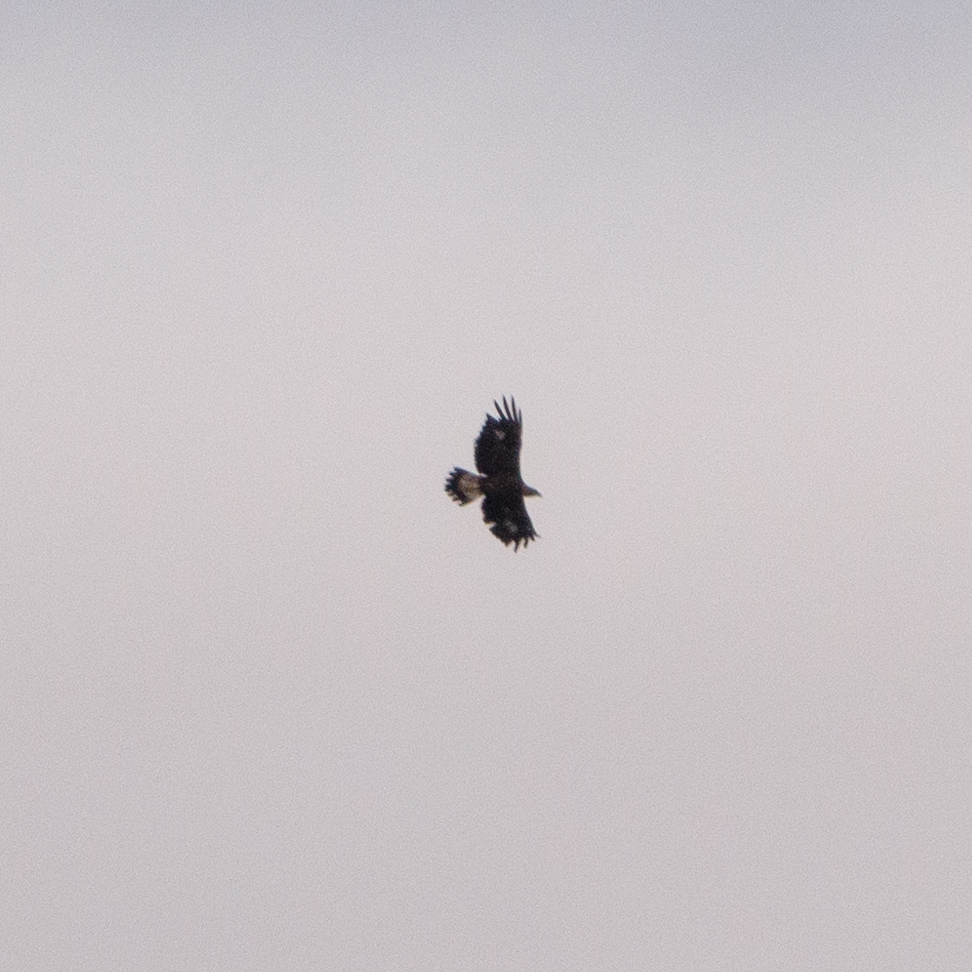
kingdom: Animalia
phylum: Chordata
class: Aves
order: Accipitriformes
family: Accipitridae
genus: Aquila
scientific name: Aquila chrysaetos
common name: Golden eagle
